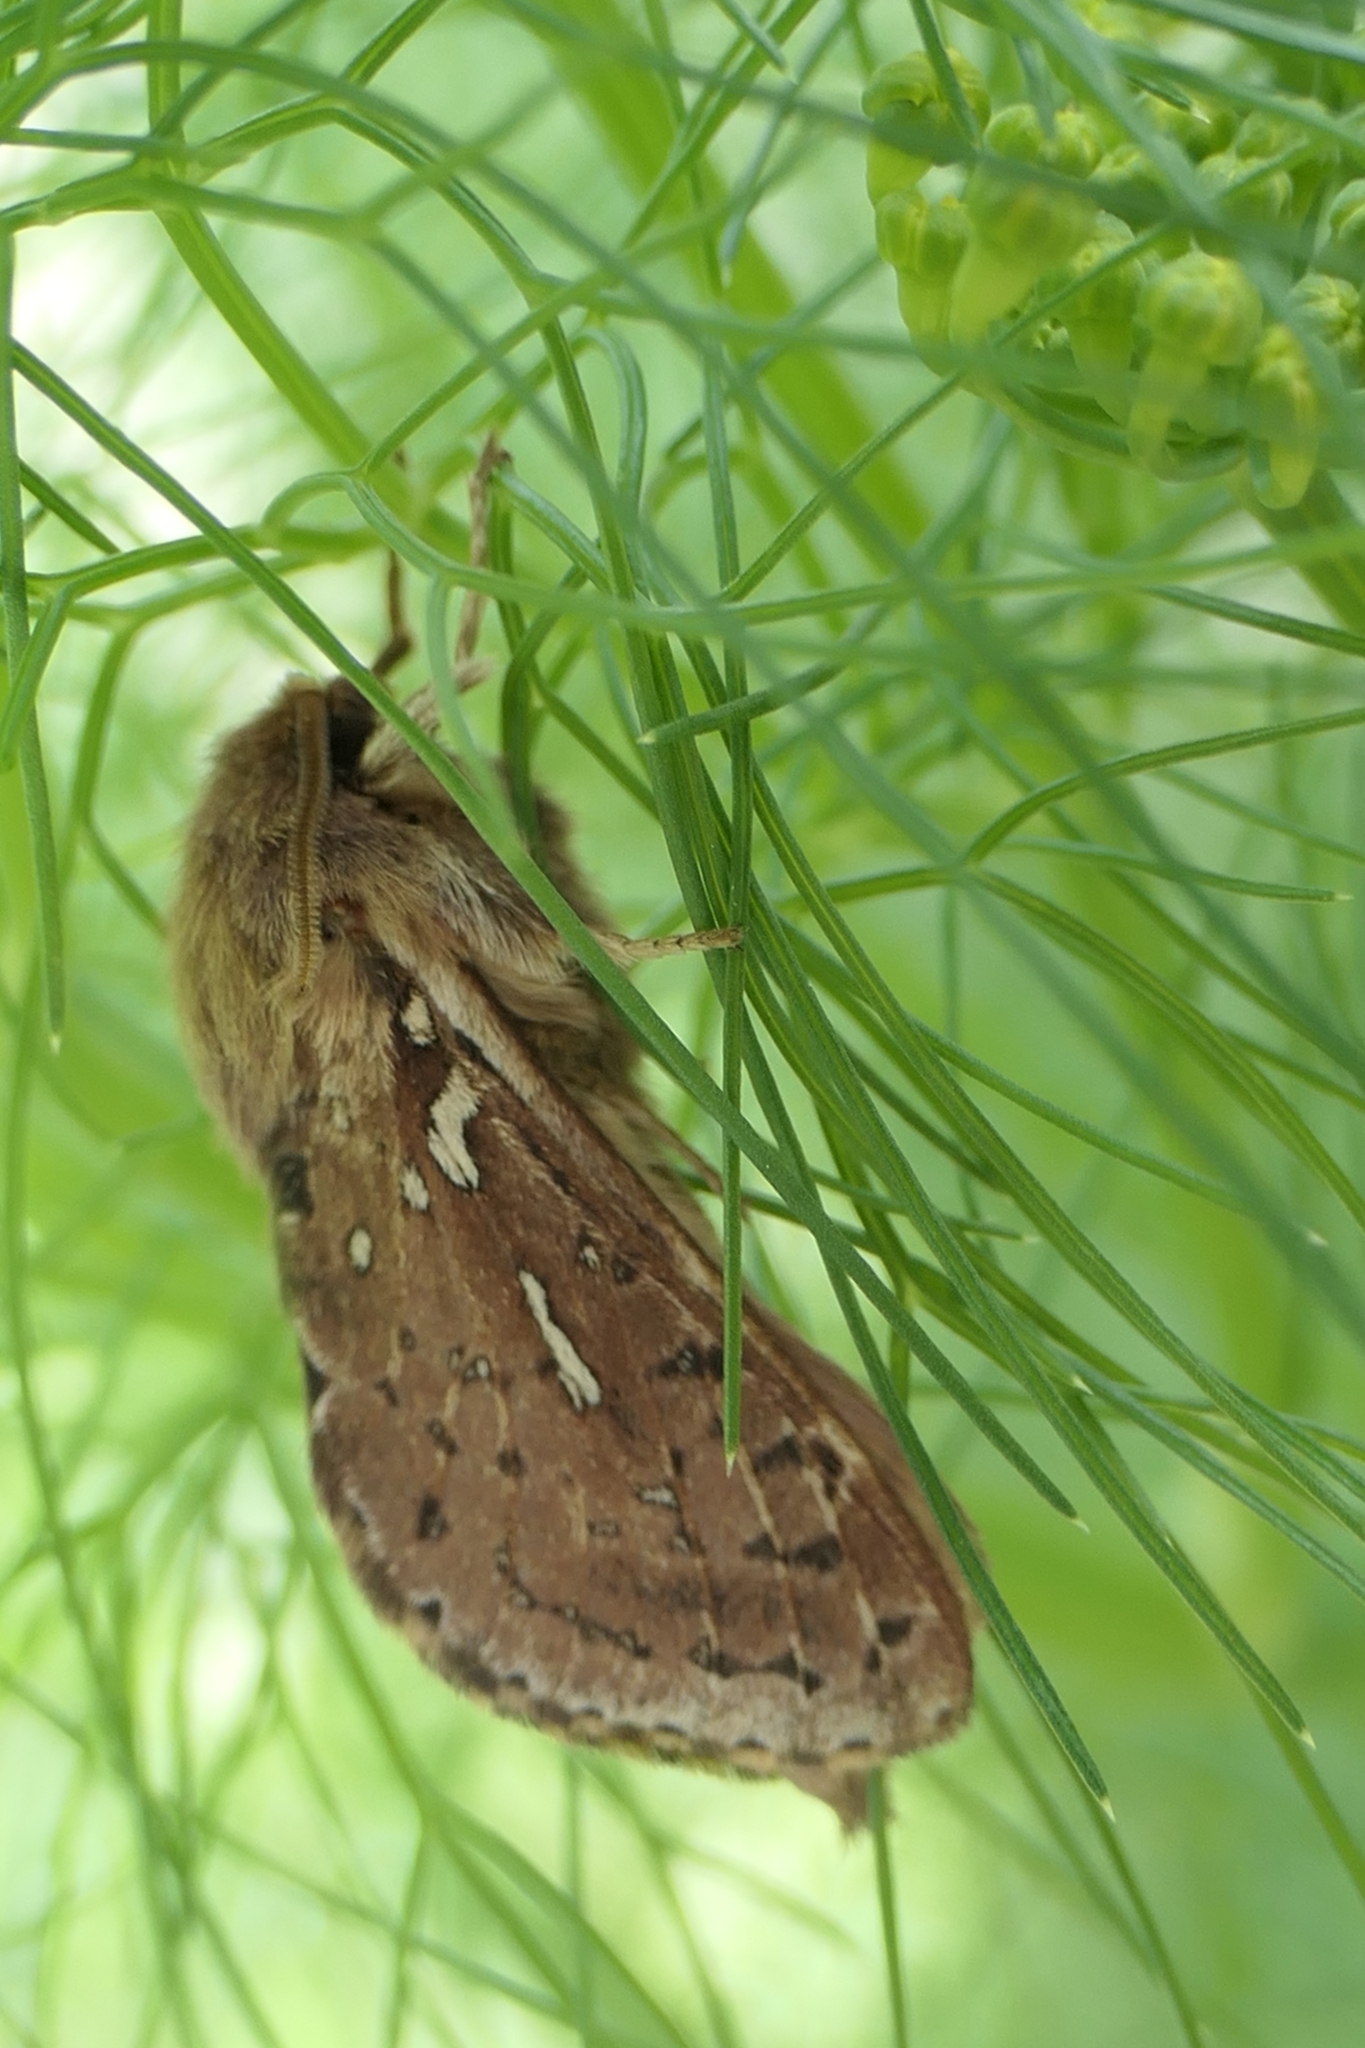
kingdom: Animalia
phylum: Arthropoda
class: Insecta
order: Lepidoptera
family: Hepialidae
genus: Wiseana
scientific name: Wiseana copularis
